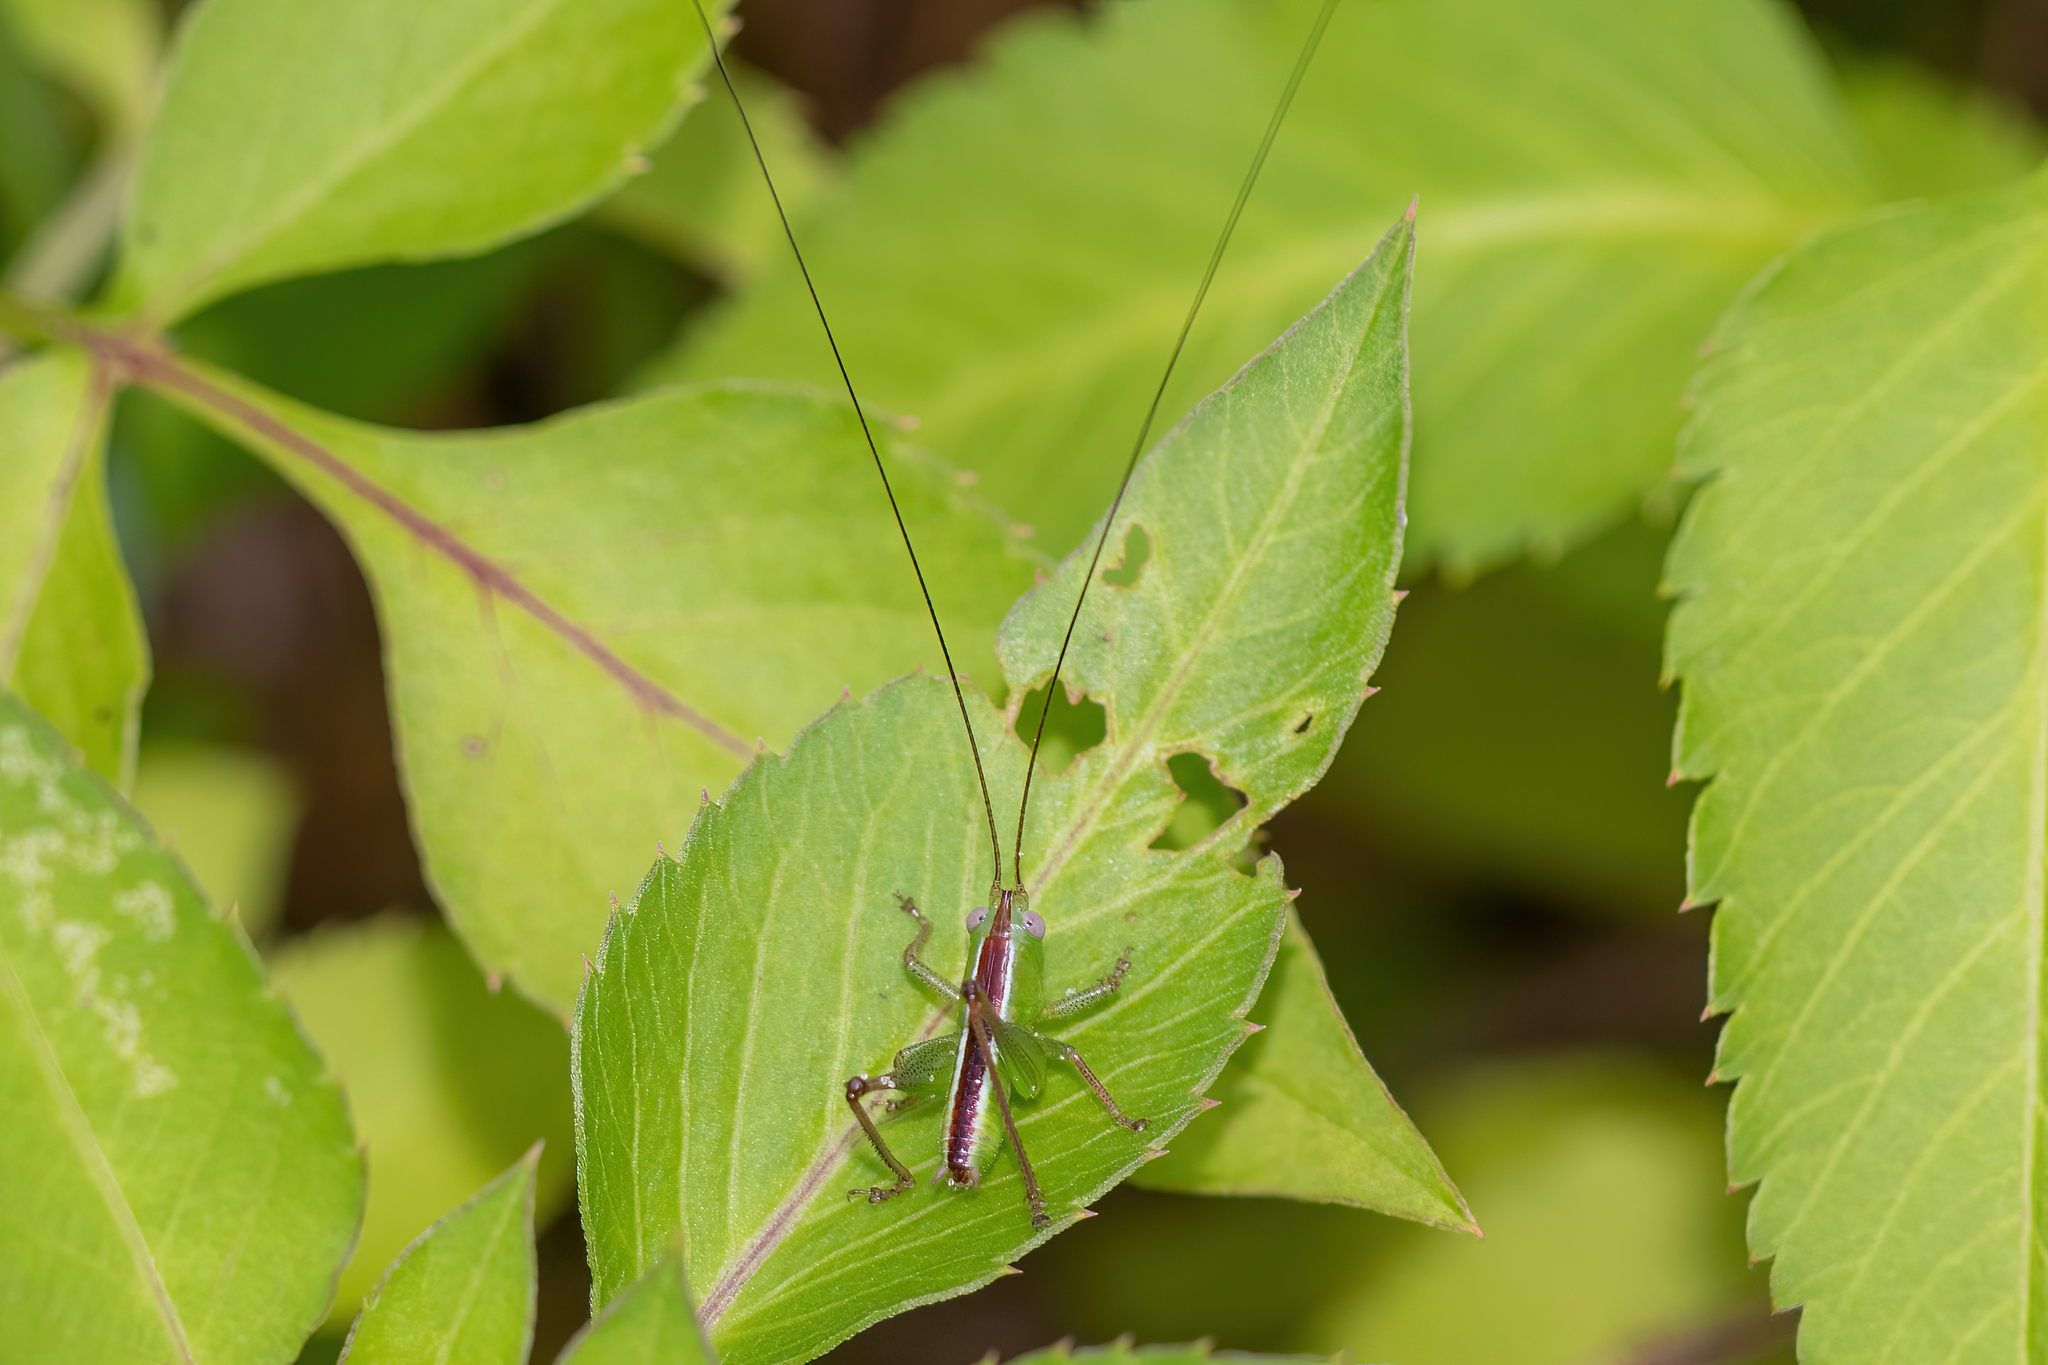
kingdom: Animalia
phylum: Arthropoda
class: Insecta
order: Orthoptera
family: Tettigoniidae
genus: Odontoxiphidium
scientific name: Odontoxiphidium apterum
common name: Wingless meadow katydid
